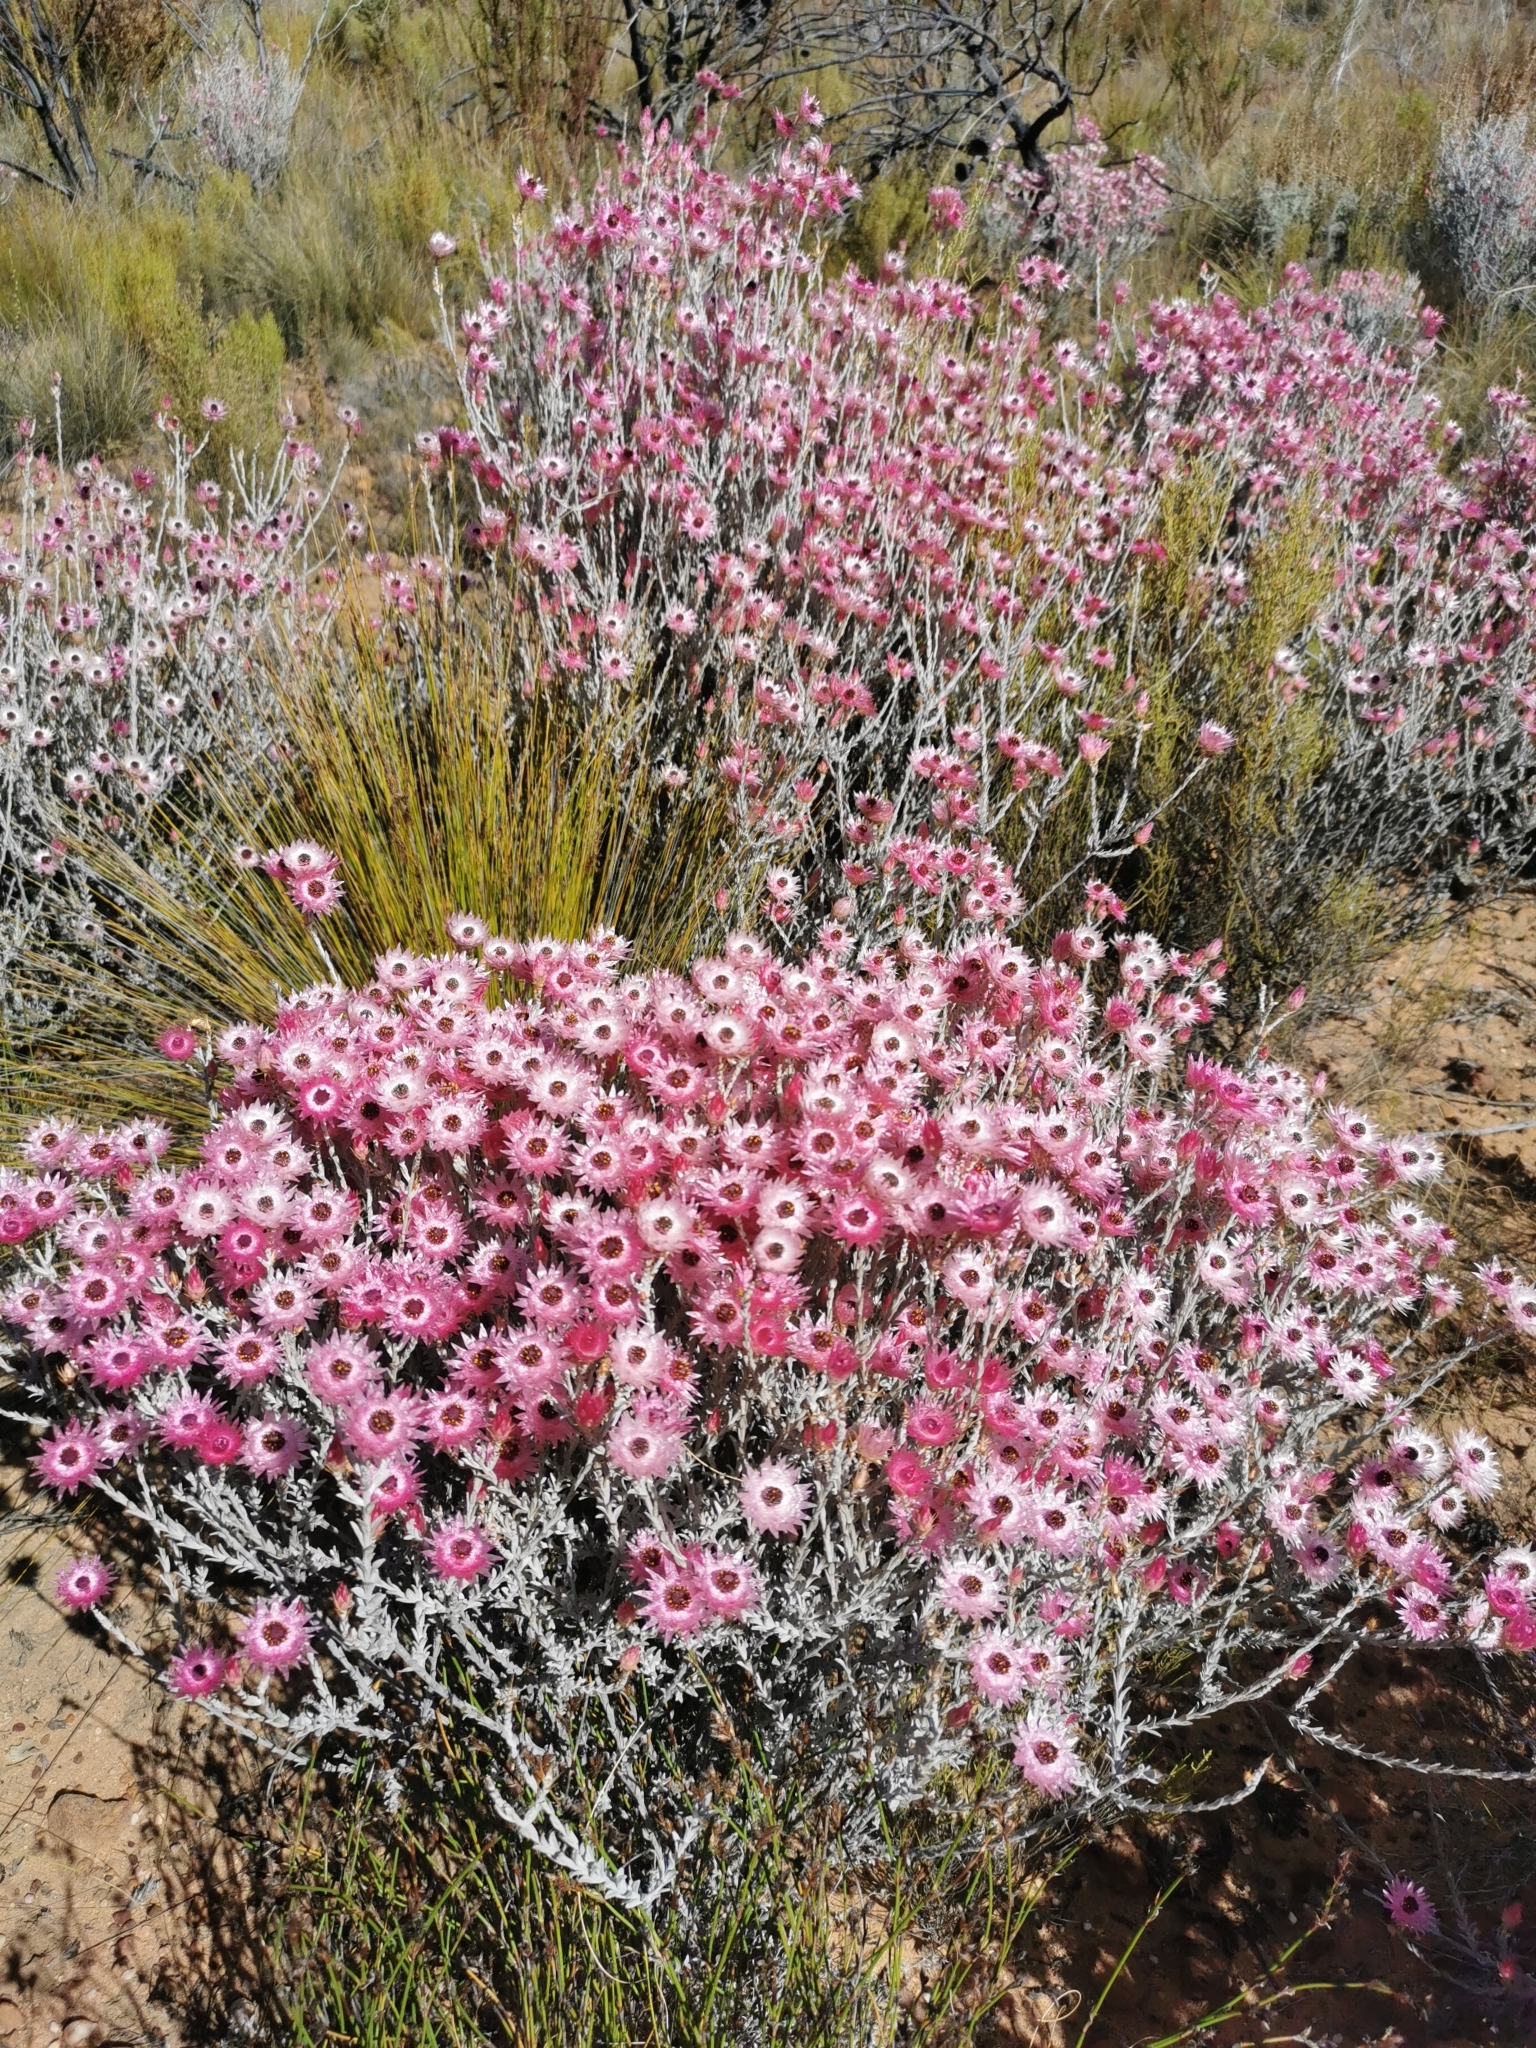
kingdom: Plantae
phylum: Tracheophyta
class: Magnoliopsida
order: Asterales
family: Asteraceae
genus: Syncarpha
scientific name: Syncarpha canescens
